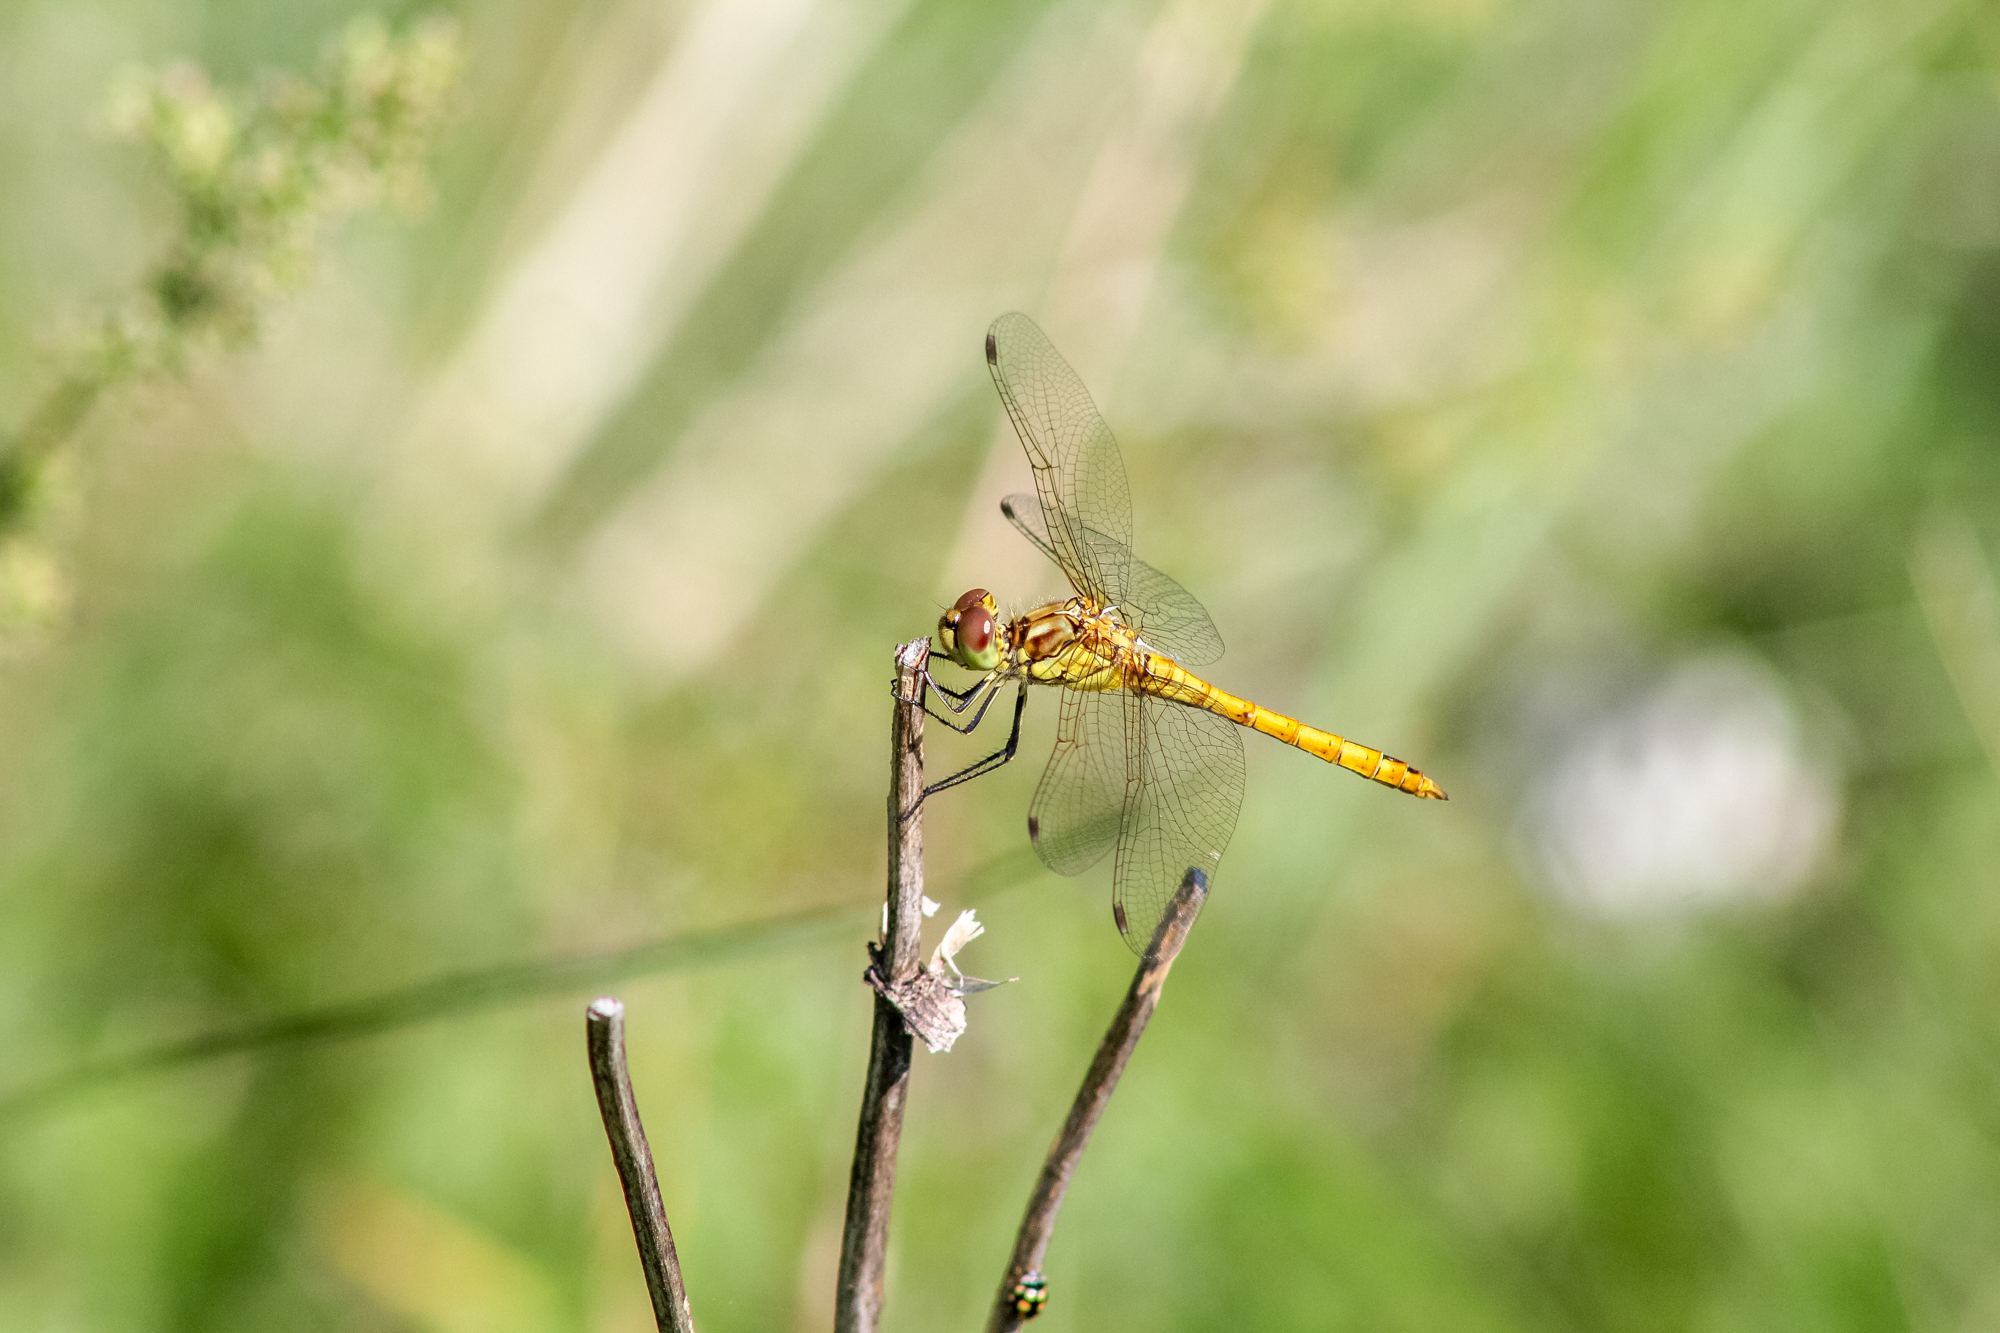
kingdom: Animalia
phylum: Arthropoda
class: Insecta
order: Odonata
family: Libellulidae
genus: Sympetrum
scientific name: Sympetrum vulgatum
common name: Vagrant darter
